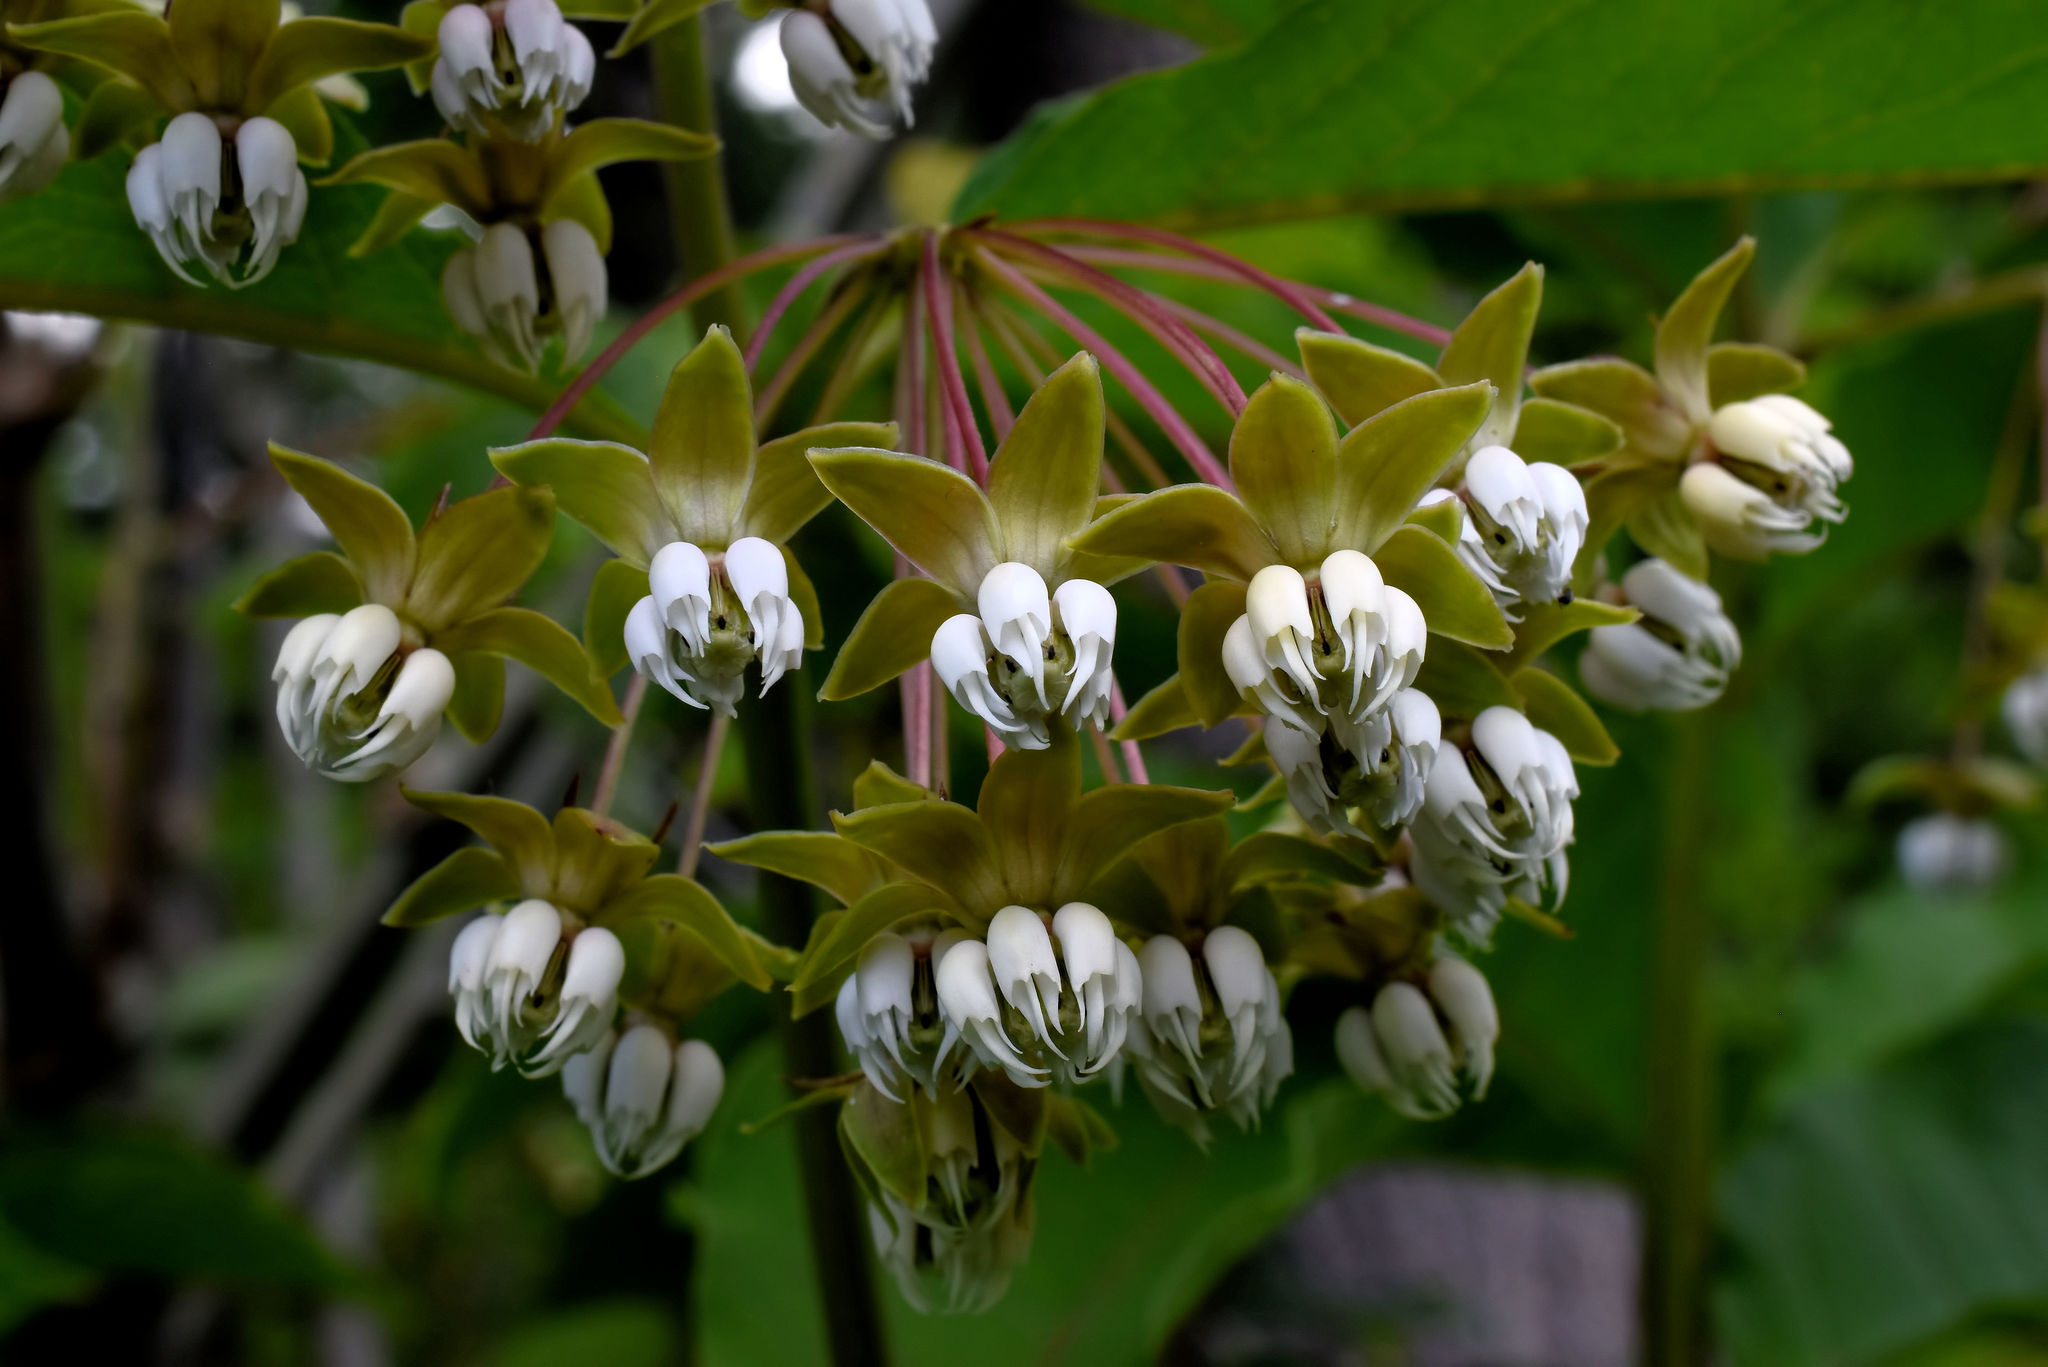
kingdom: Plantae
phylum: Tracheophyta
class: Magnoliopsida
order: Gentianales
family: Apocynaceae
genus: Asclepias
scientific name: Asclepias exaltata
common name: Poke milkweed
